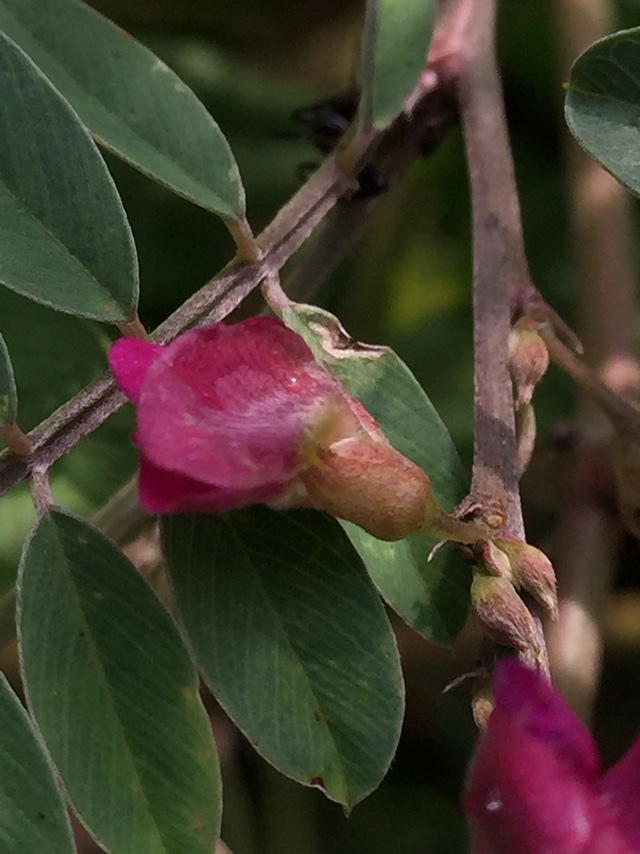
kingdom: Plantae
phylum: Tracheophyta
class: Magnoliopsida
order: Fabales
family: Fabaceae
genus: Tephrosia
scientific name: Tephrosia purpurea
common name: Fishpoison
